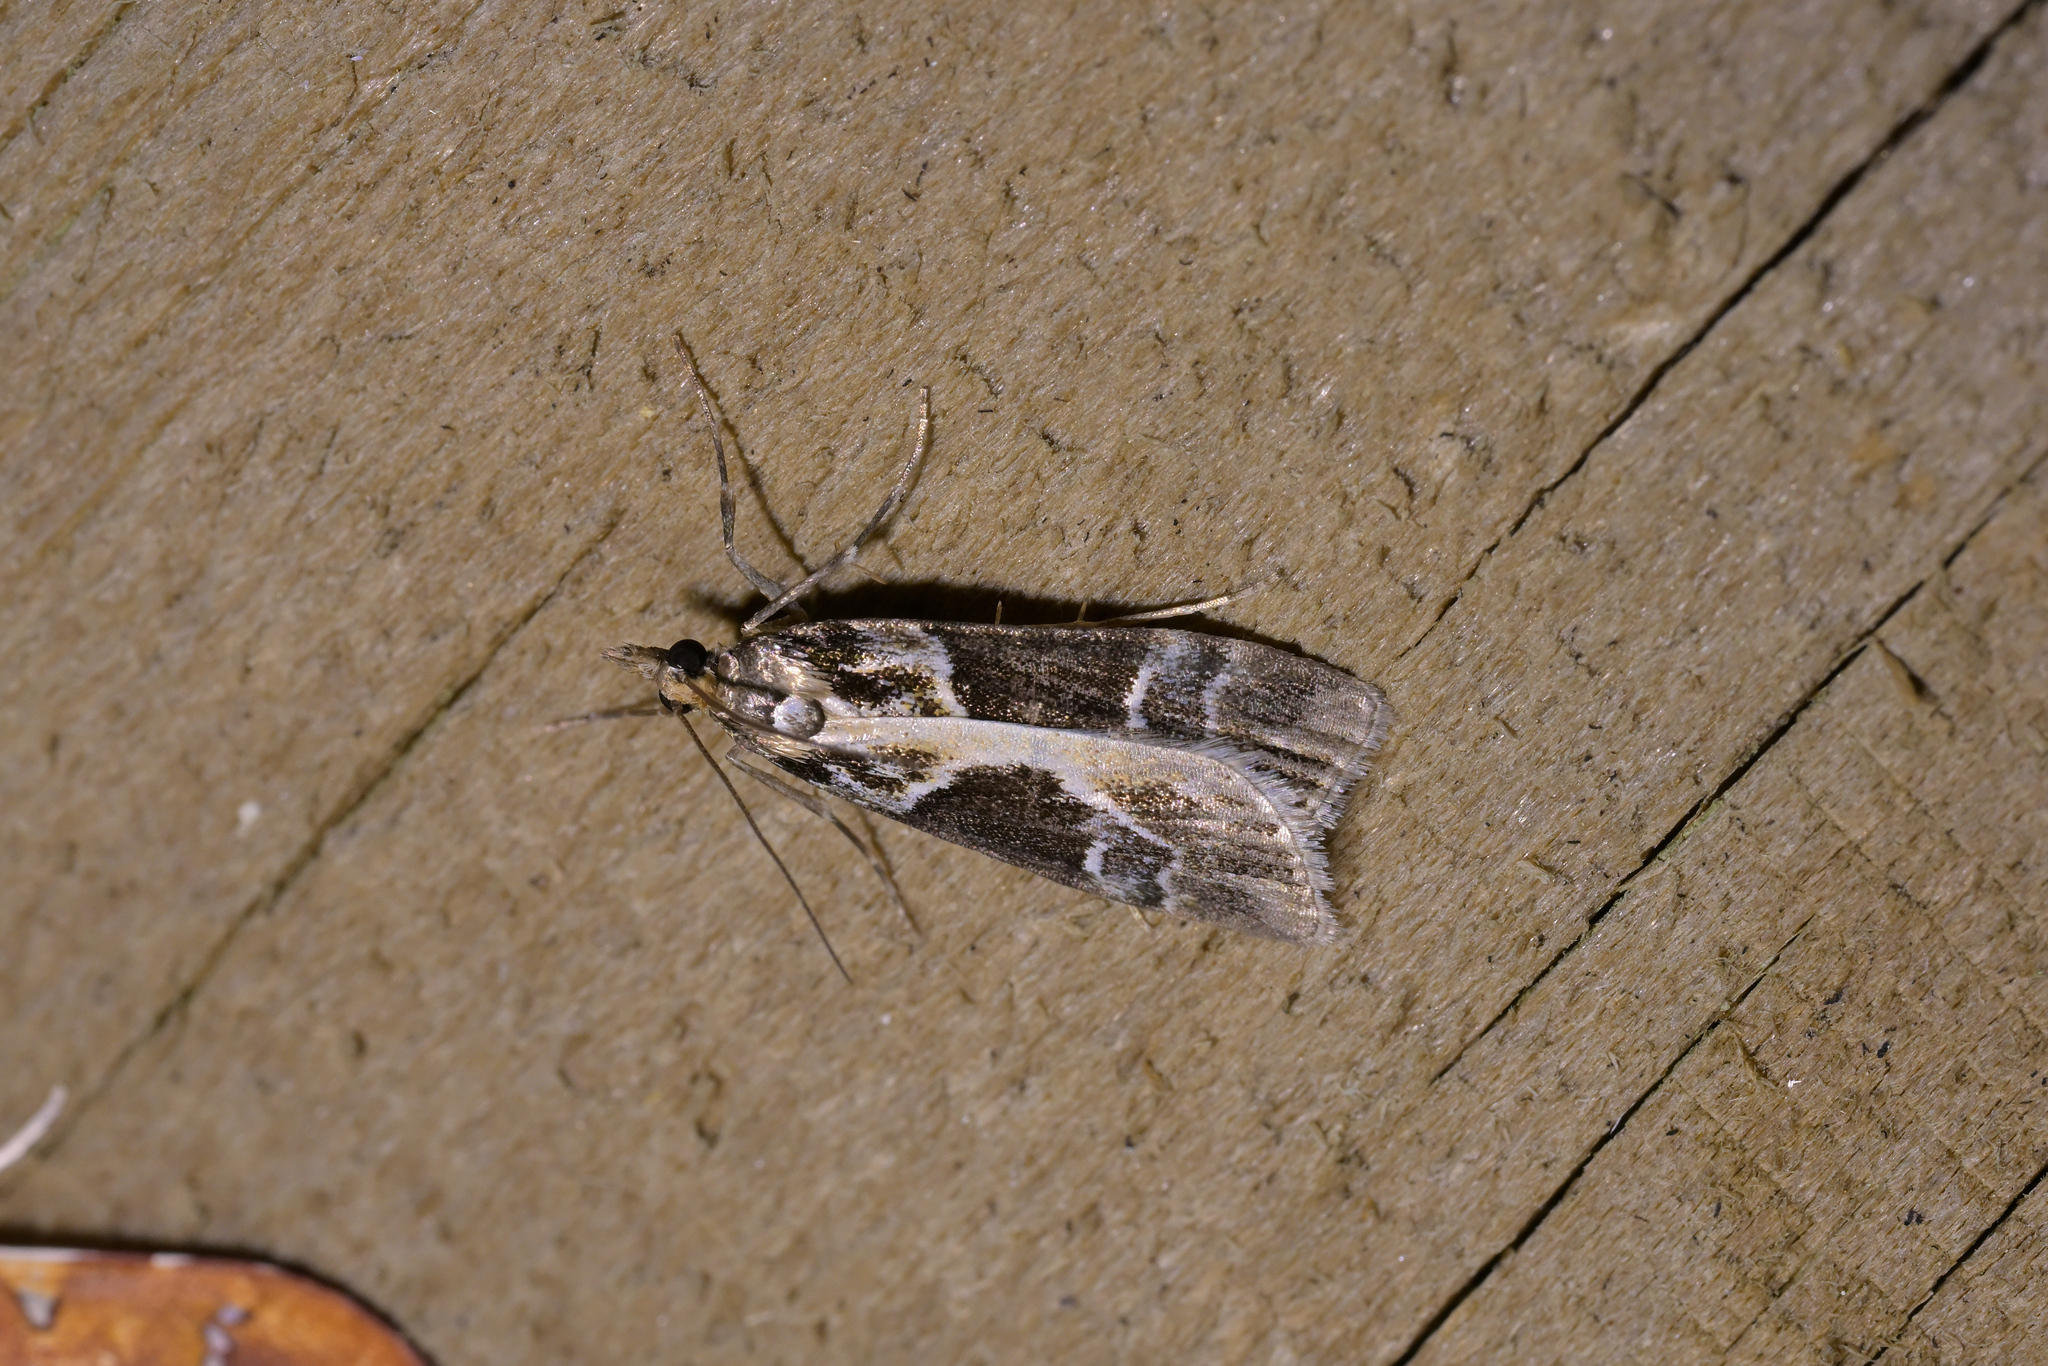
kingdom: Animalia
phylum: Arthropoda
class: Insecta
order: Lepidoptera
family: Crambidae
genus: Eudonia
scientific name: Eudonia melanaegis
